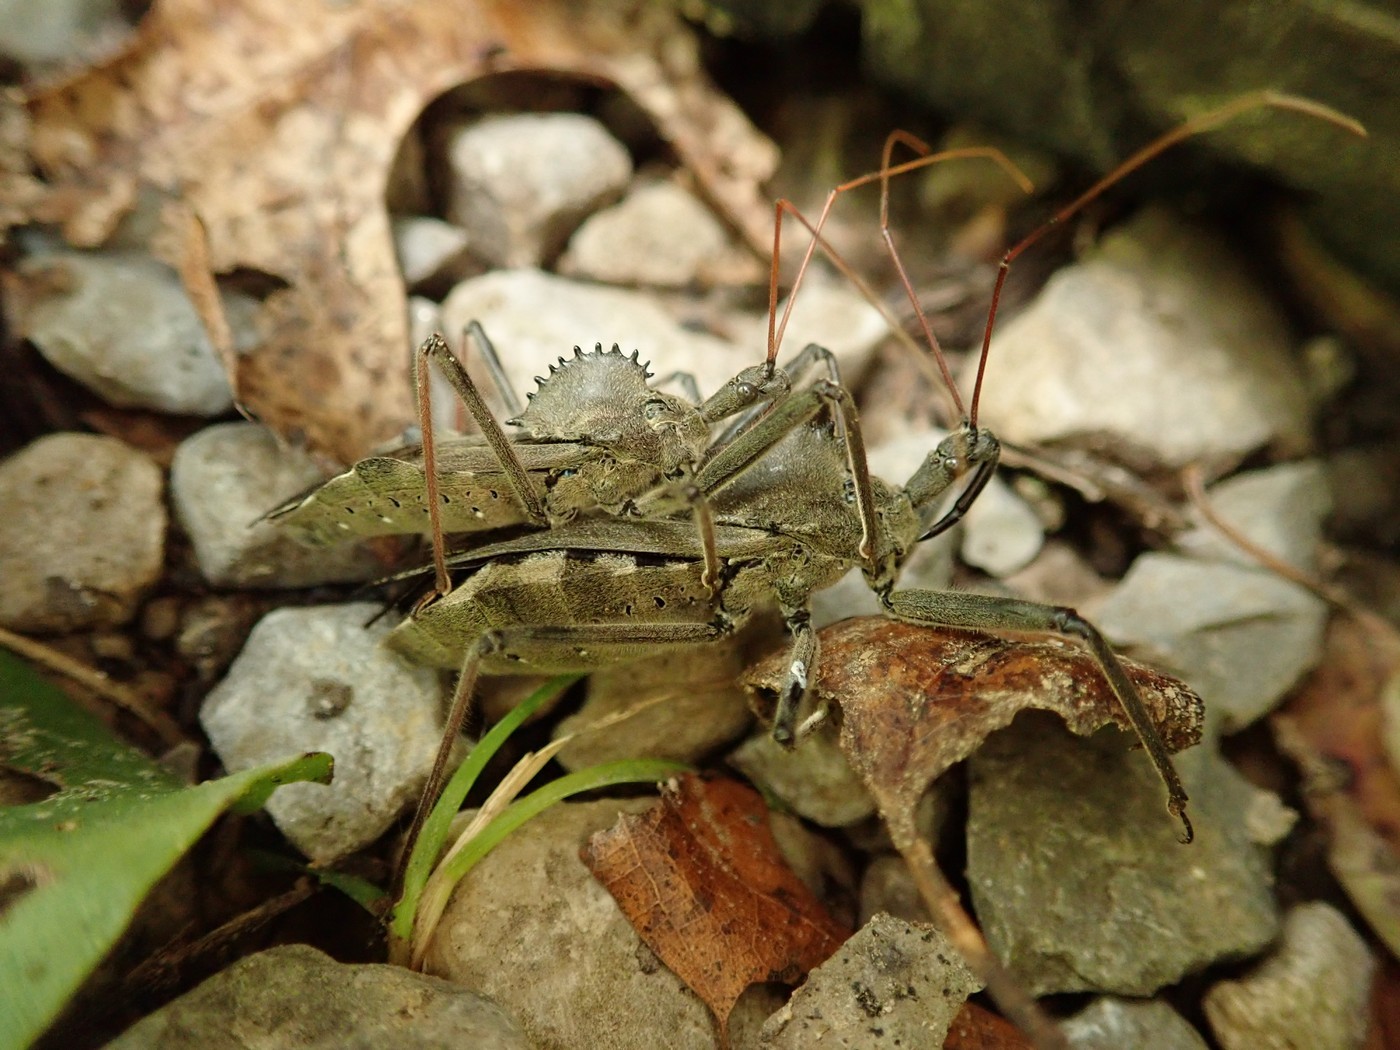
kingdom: Animalia
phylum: Arthropoda
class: Insecta
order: Hemiptera
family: Reduviidae
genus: Arilus
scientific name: Arilus cristatus
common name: North american wheel bug
